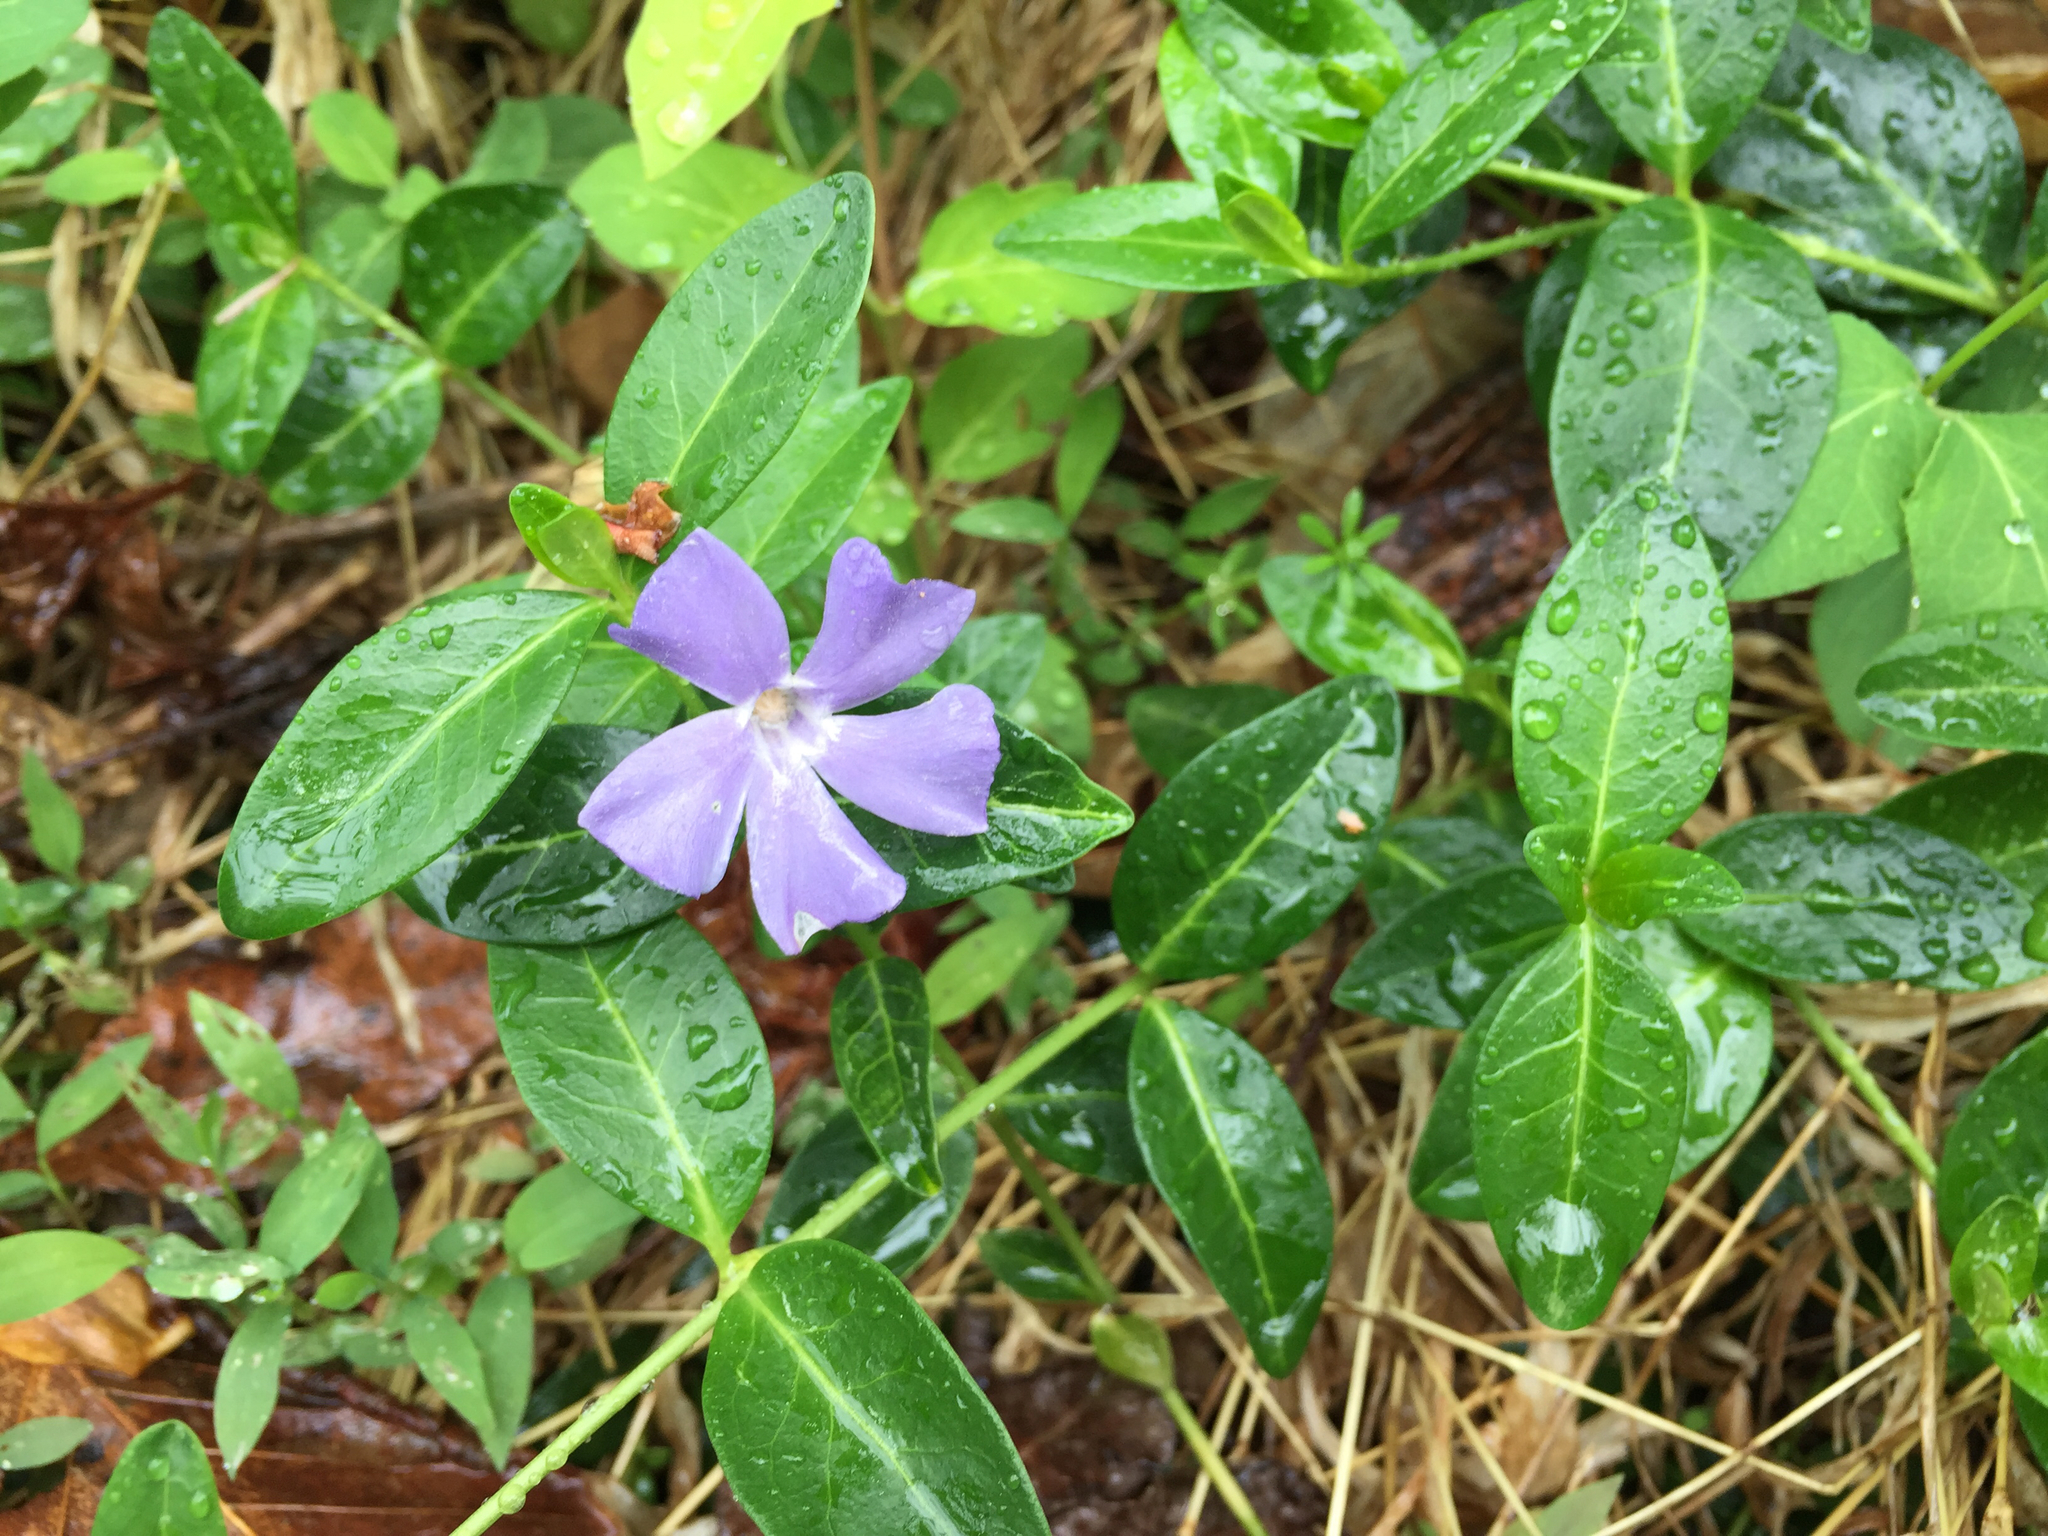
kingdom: Plantae
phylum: Tracheophyta
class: Magnoliopsida
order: Gentianales
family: Apocynaceae
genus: Vinca
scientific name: Vinca minor
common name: Lesser periwinkle
